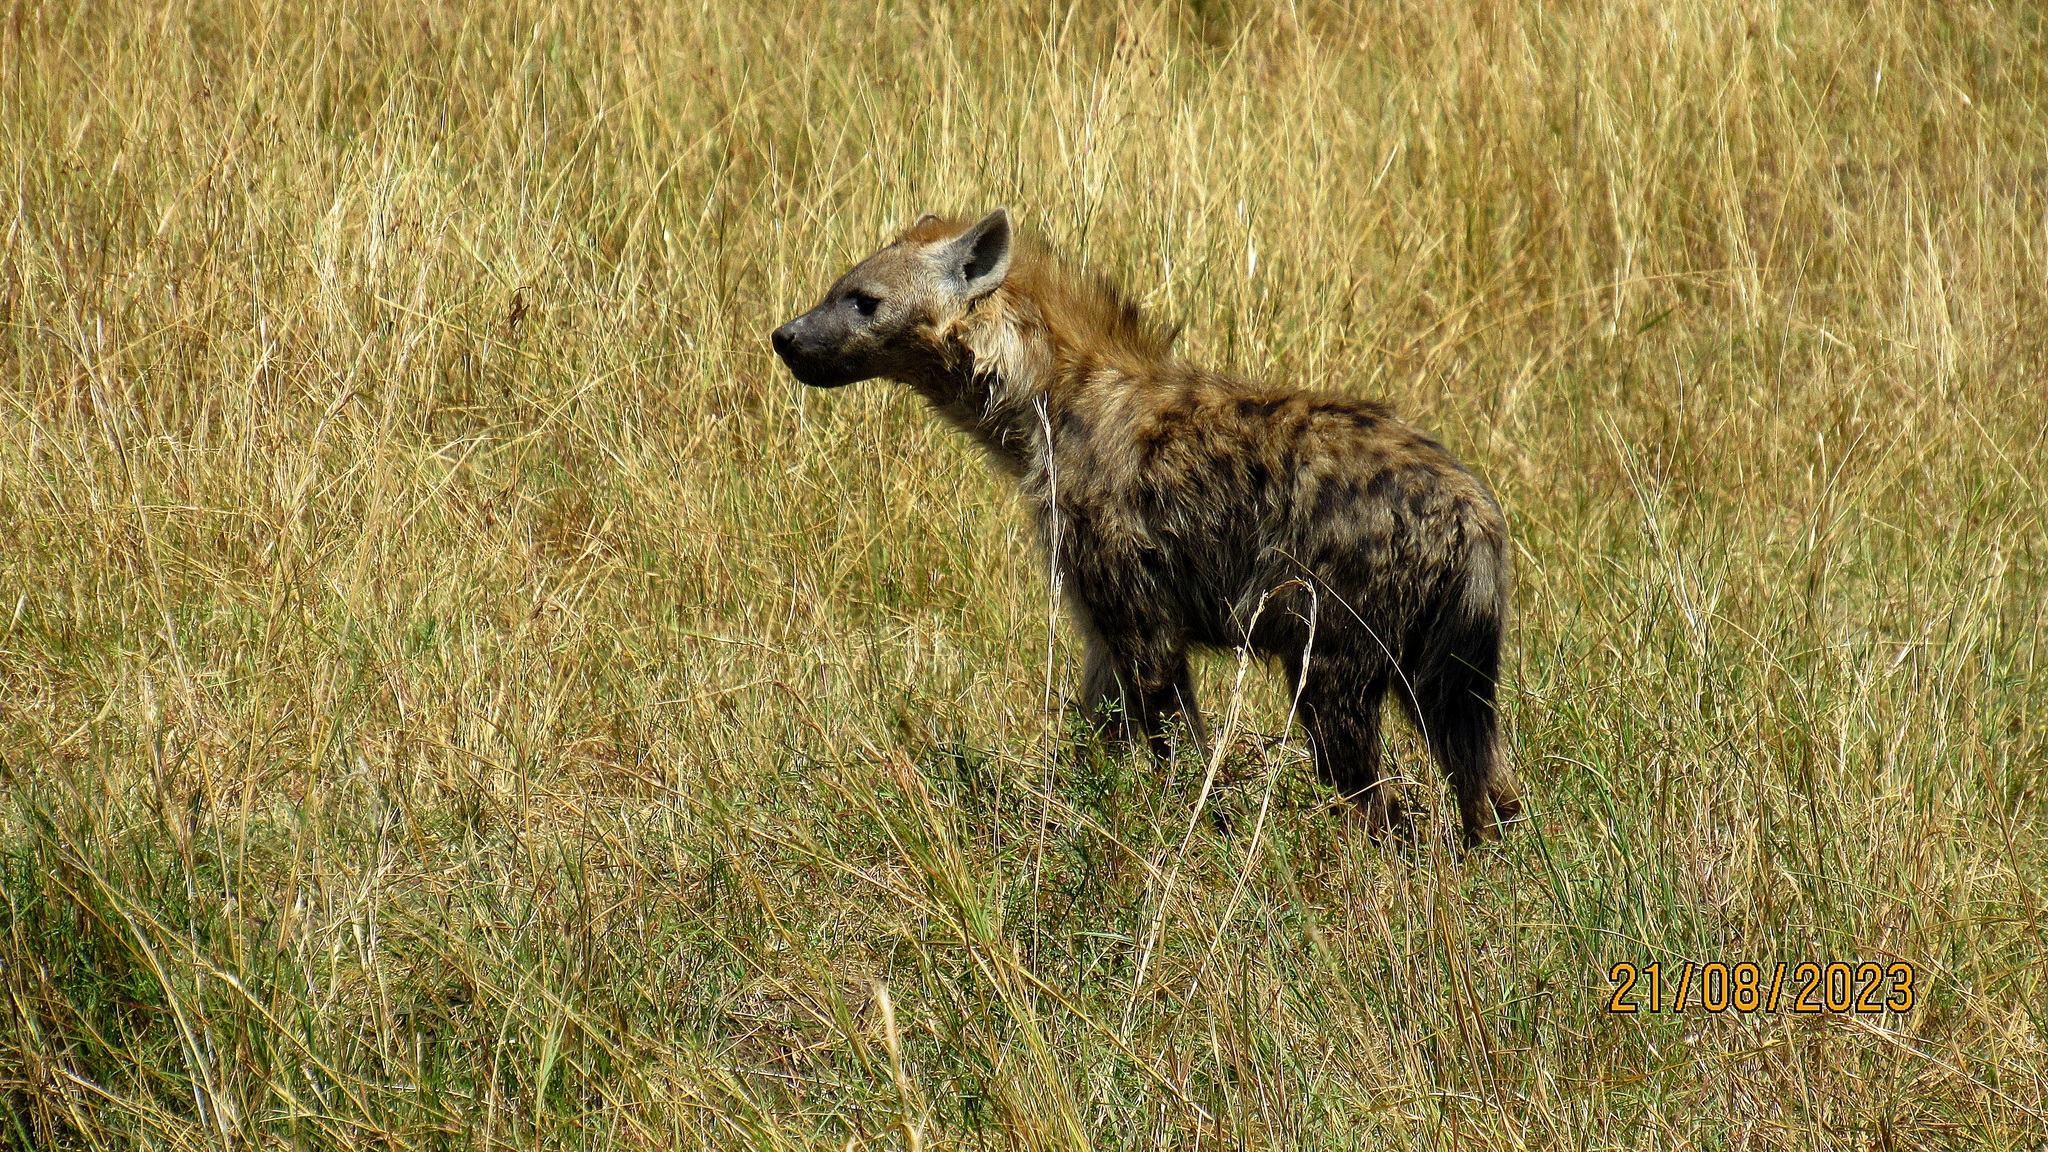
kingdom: Animalia
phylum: Chordata
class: Mammalia
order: Carnivora
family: Hyaenidae
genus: Crocuta
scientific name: Crocuta crocuta
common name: Spotted hyaena
